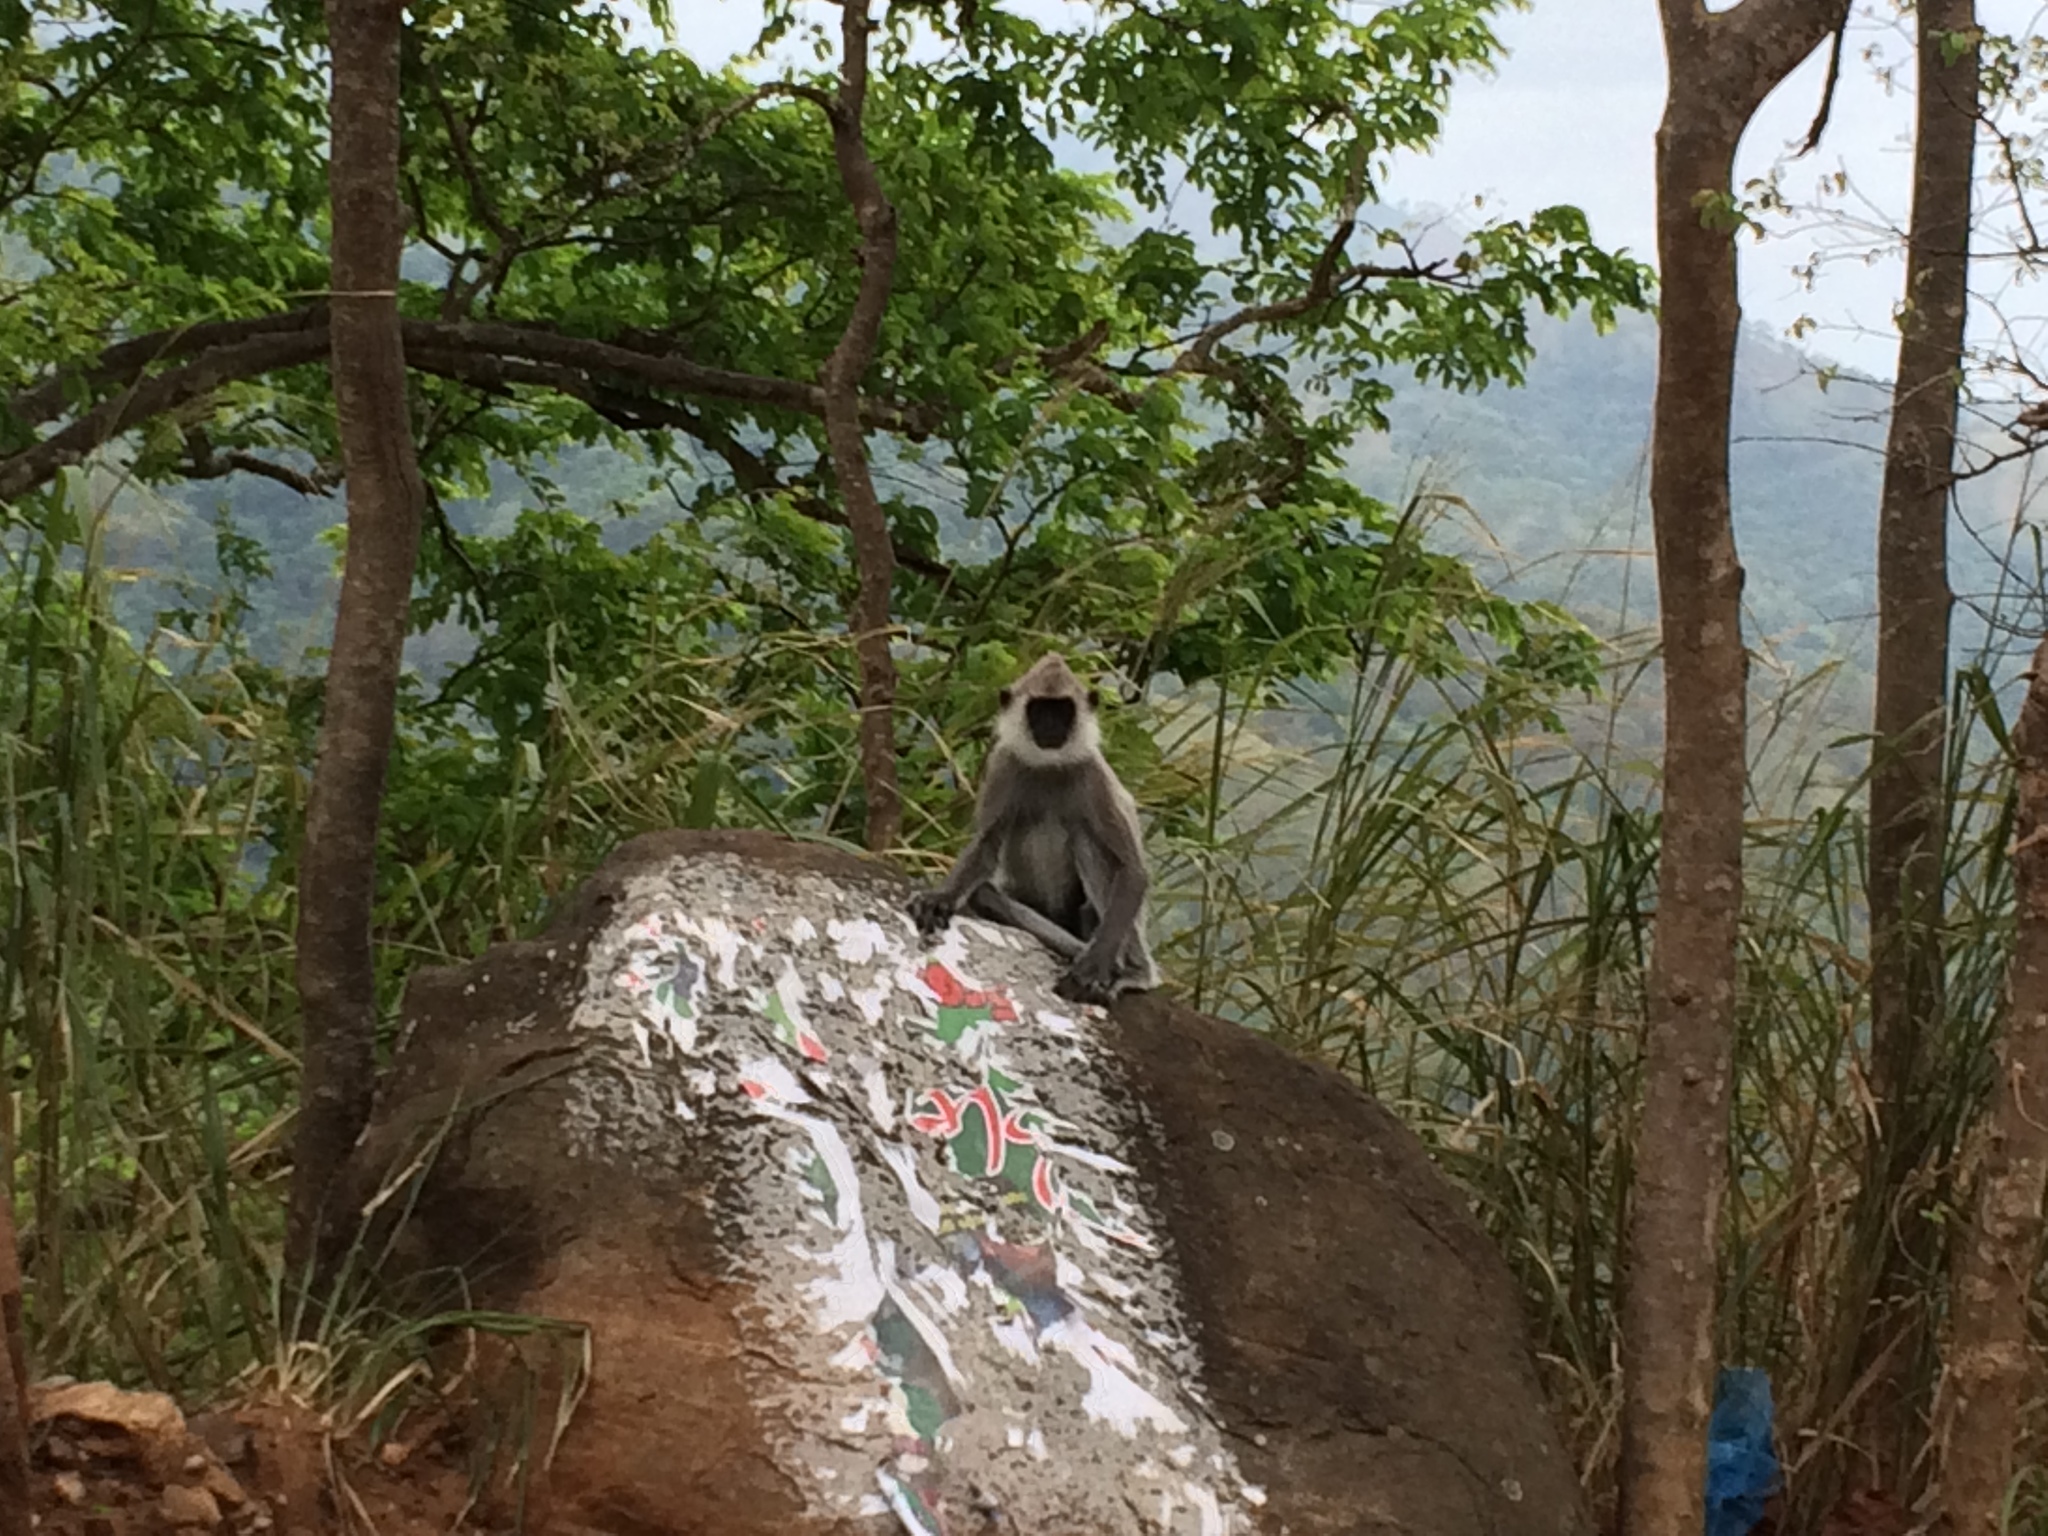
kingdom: Animalia
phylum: Chordata
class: Mammalia
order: Primates
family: Cercopithecidae
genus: Semnopithecus
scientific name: Semnopithecus priam
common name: Tufted gray langur
